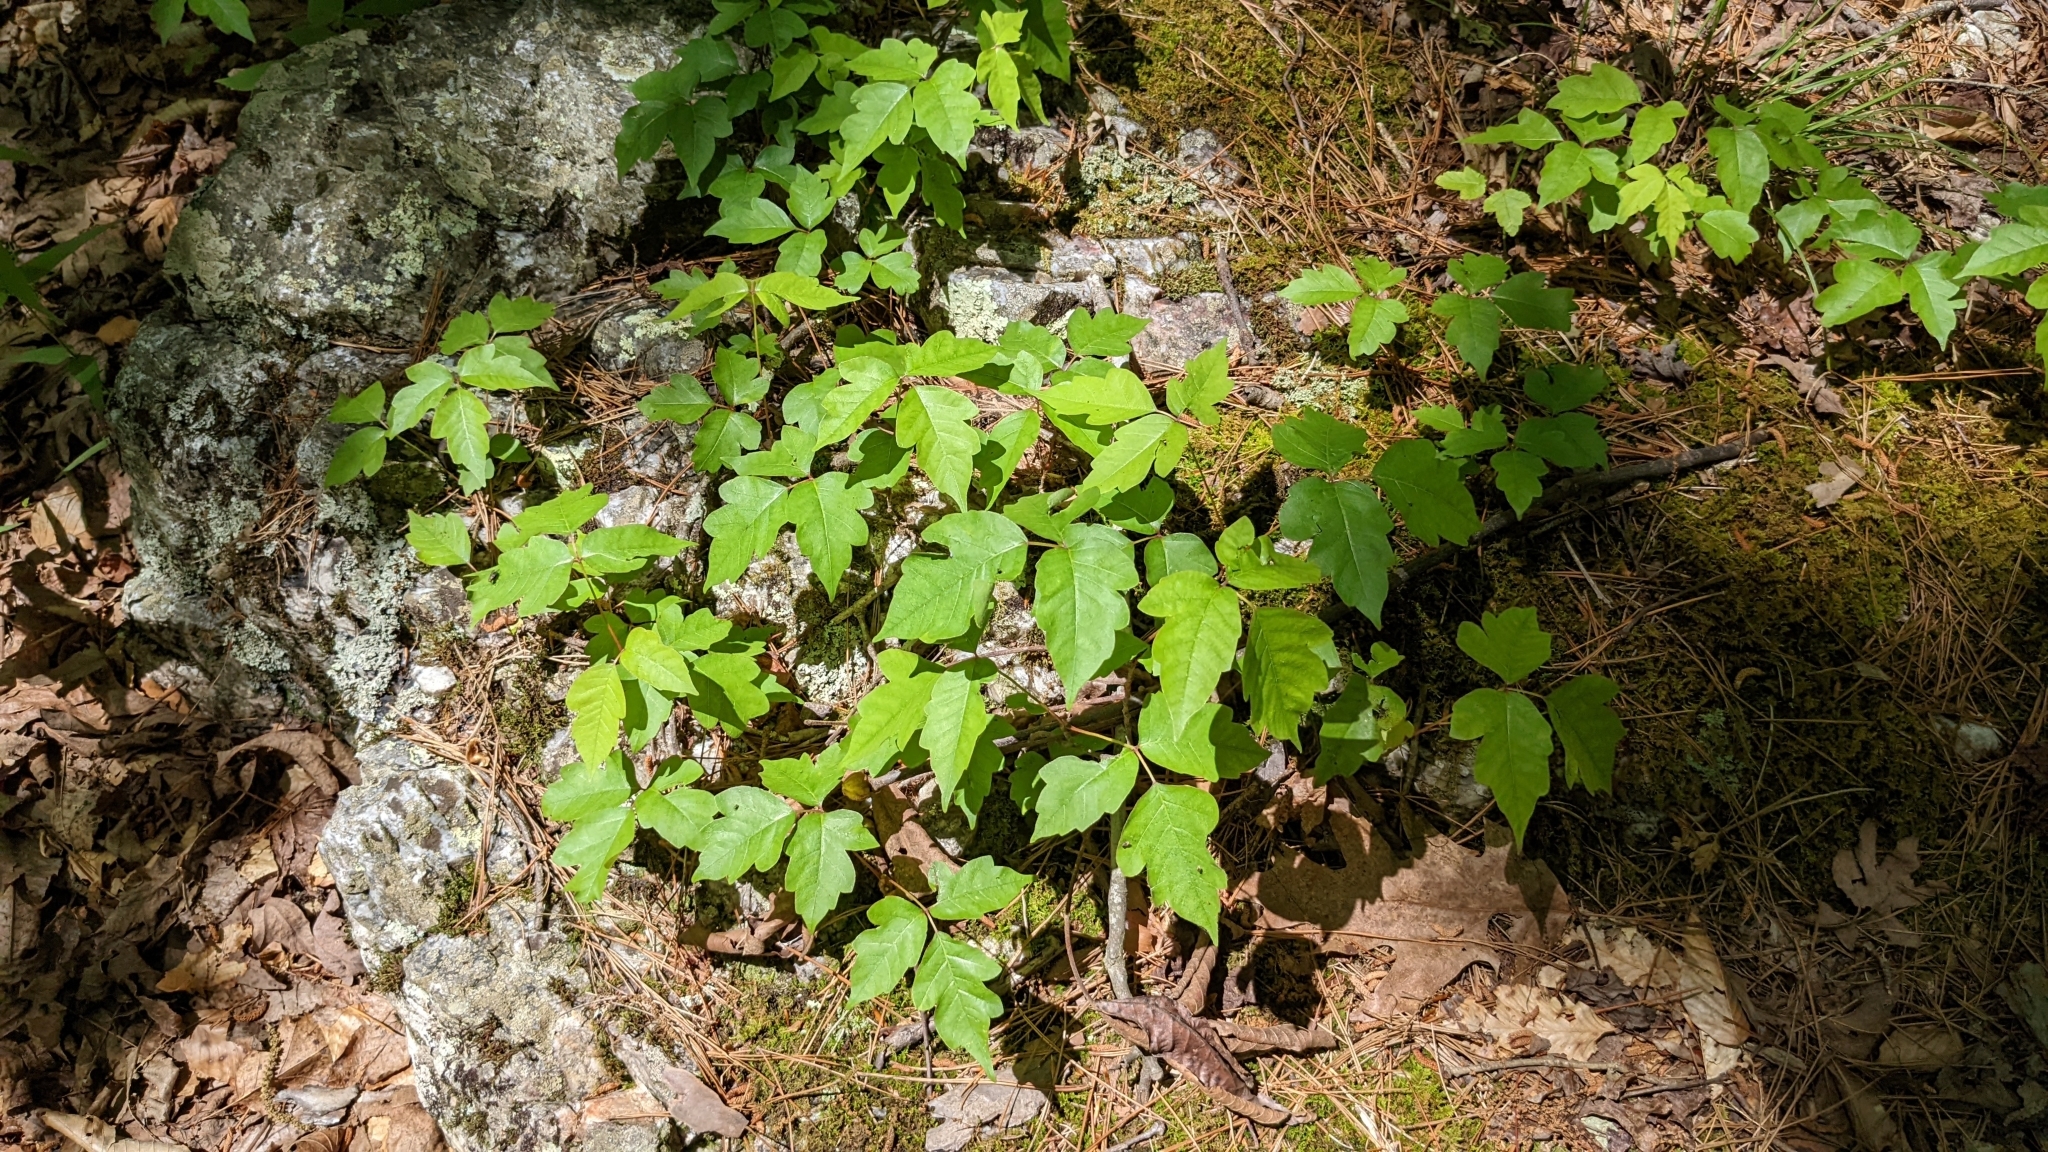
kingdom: Plantae
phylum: Tracheophyta
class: Magnoliopsida
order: Sapindales
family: Anacardiaceae
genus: Toxicodendron
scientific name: Toxicodendron radicans
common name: Poison ivy
